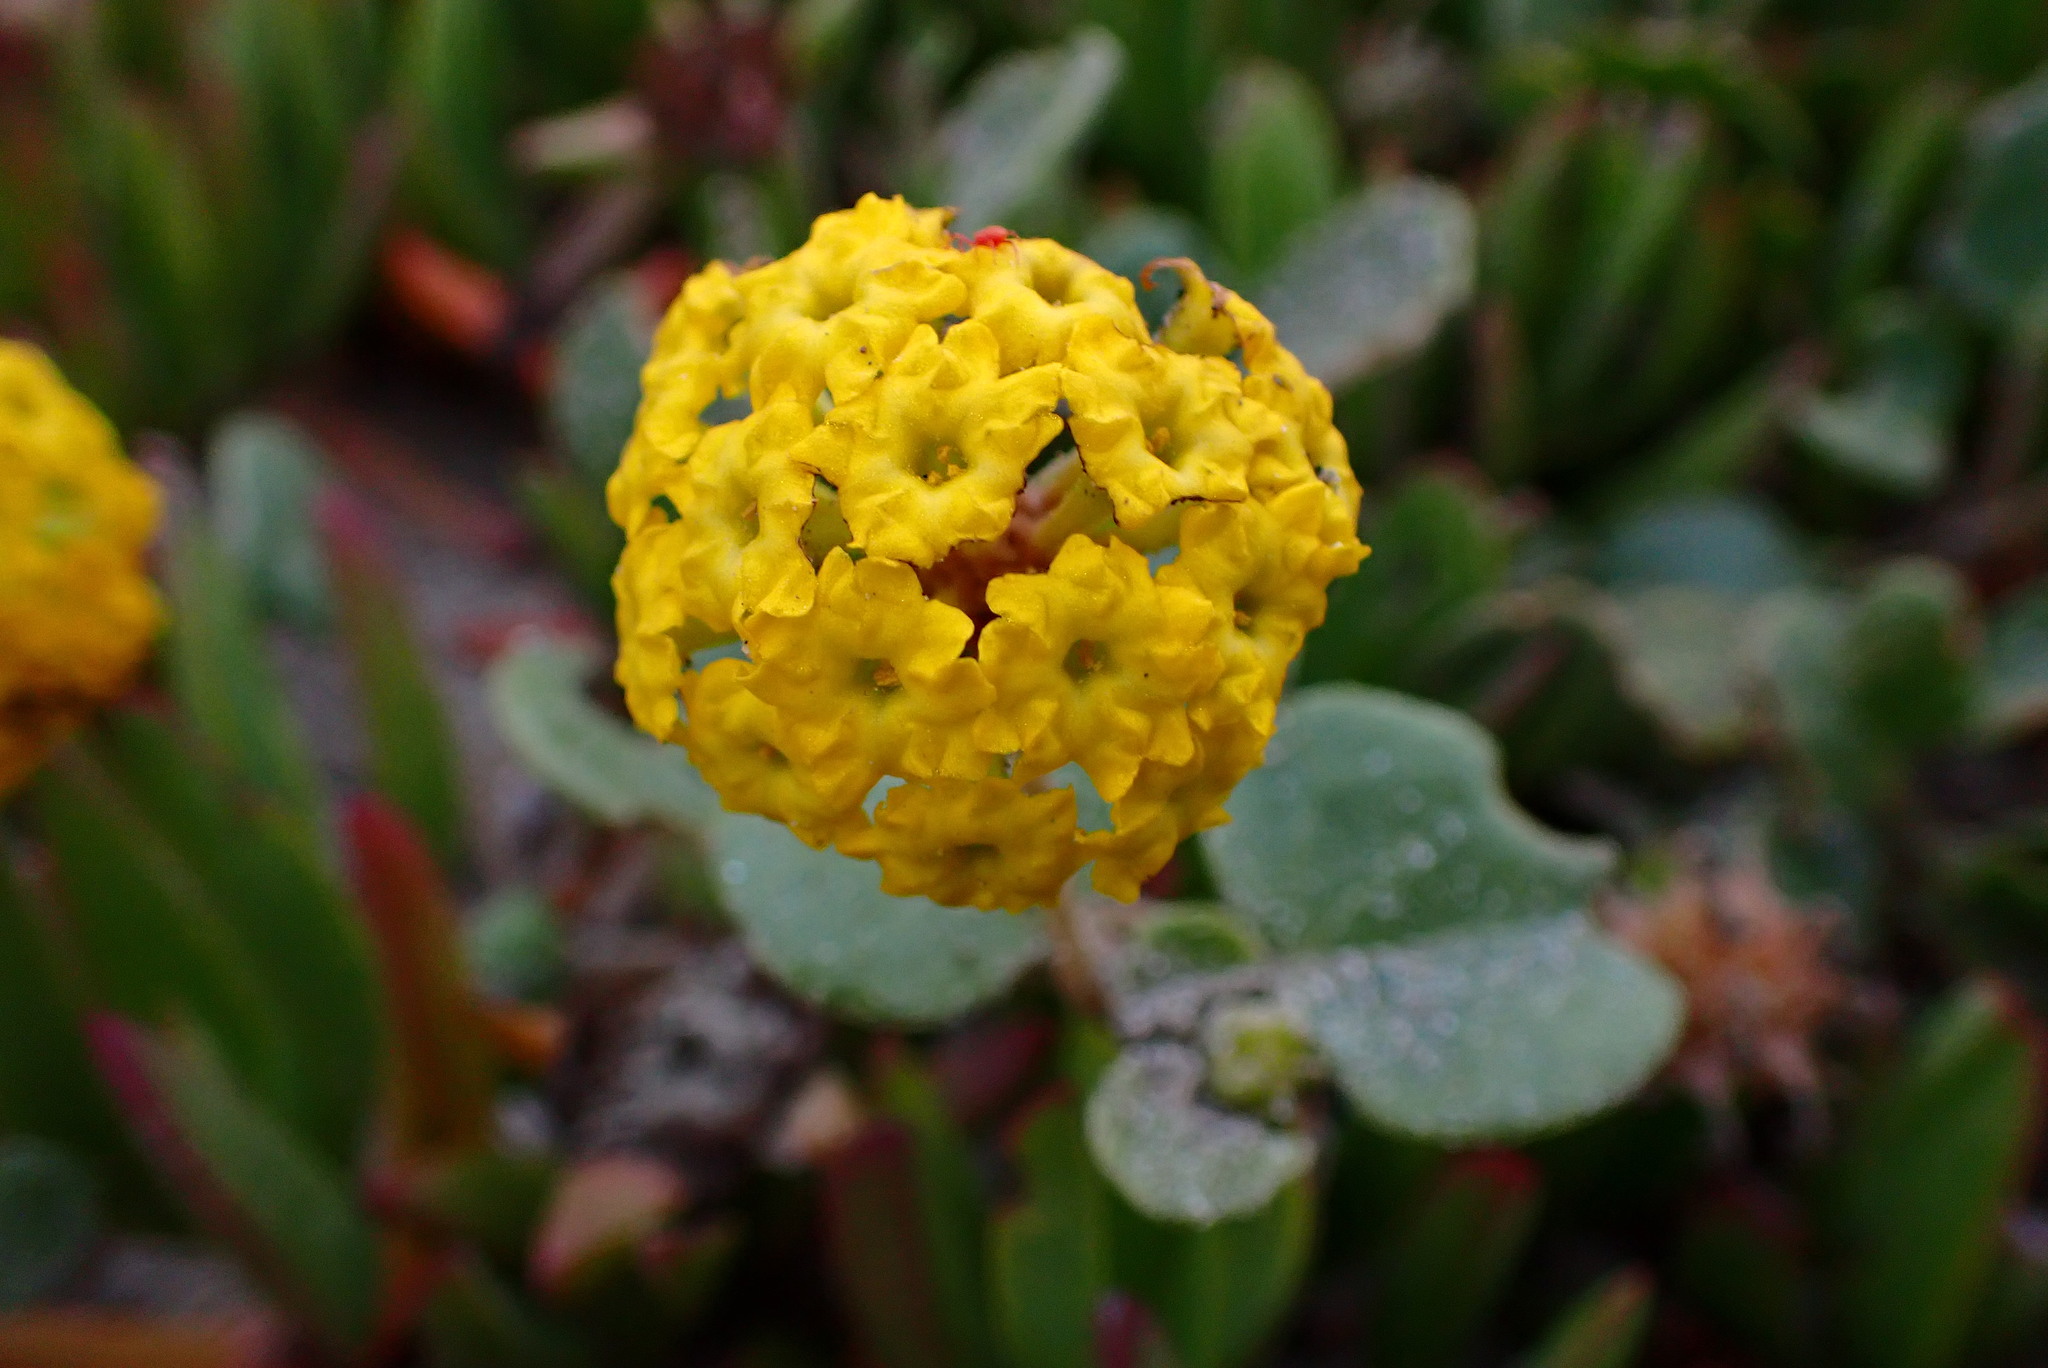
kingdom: Plantae
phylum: Tracheophyta
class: Magnoliopsida
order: Caryophyllales
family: Nyctaginaceae
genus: Abronia
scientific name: Abronia latifolia
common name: Yellow sand-verbena
